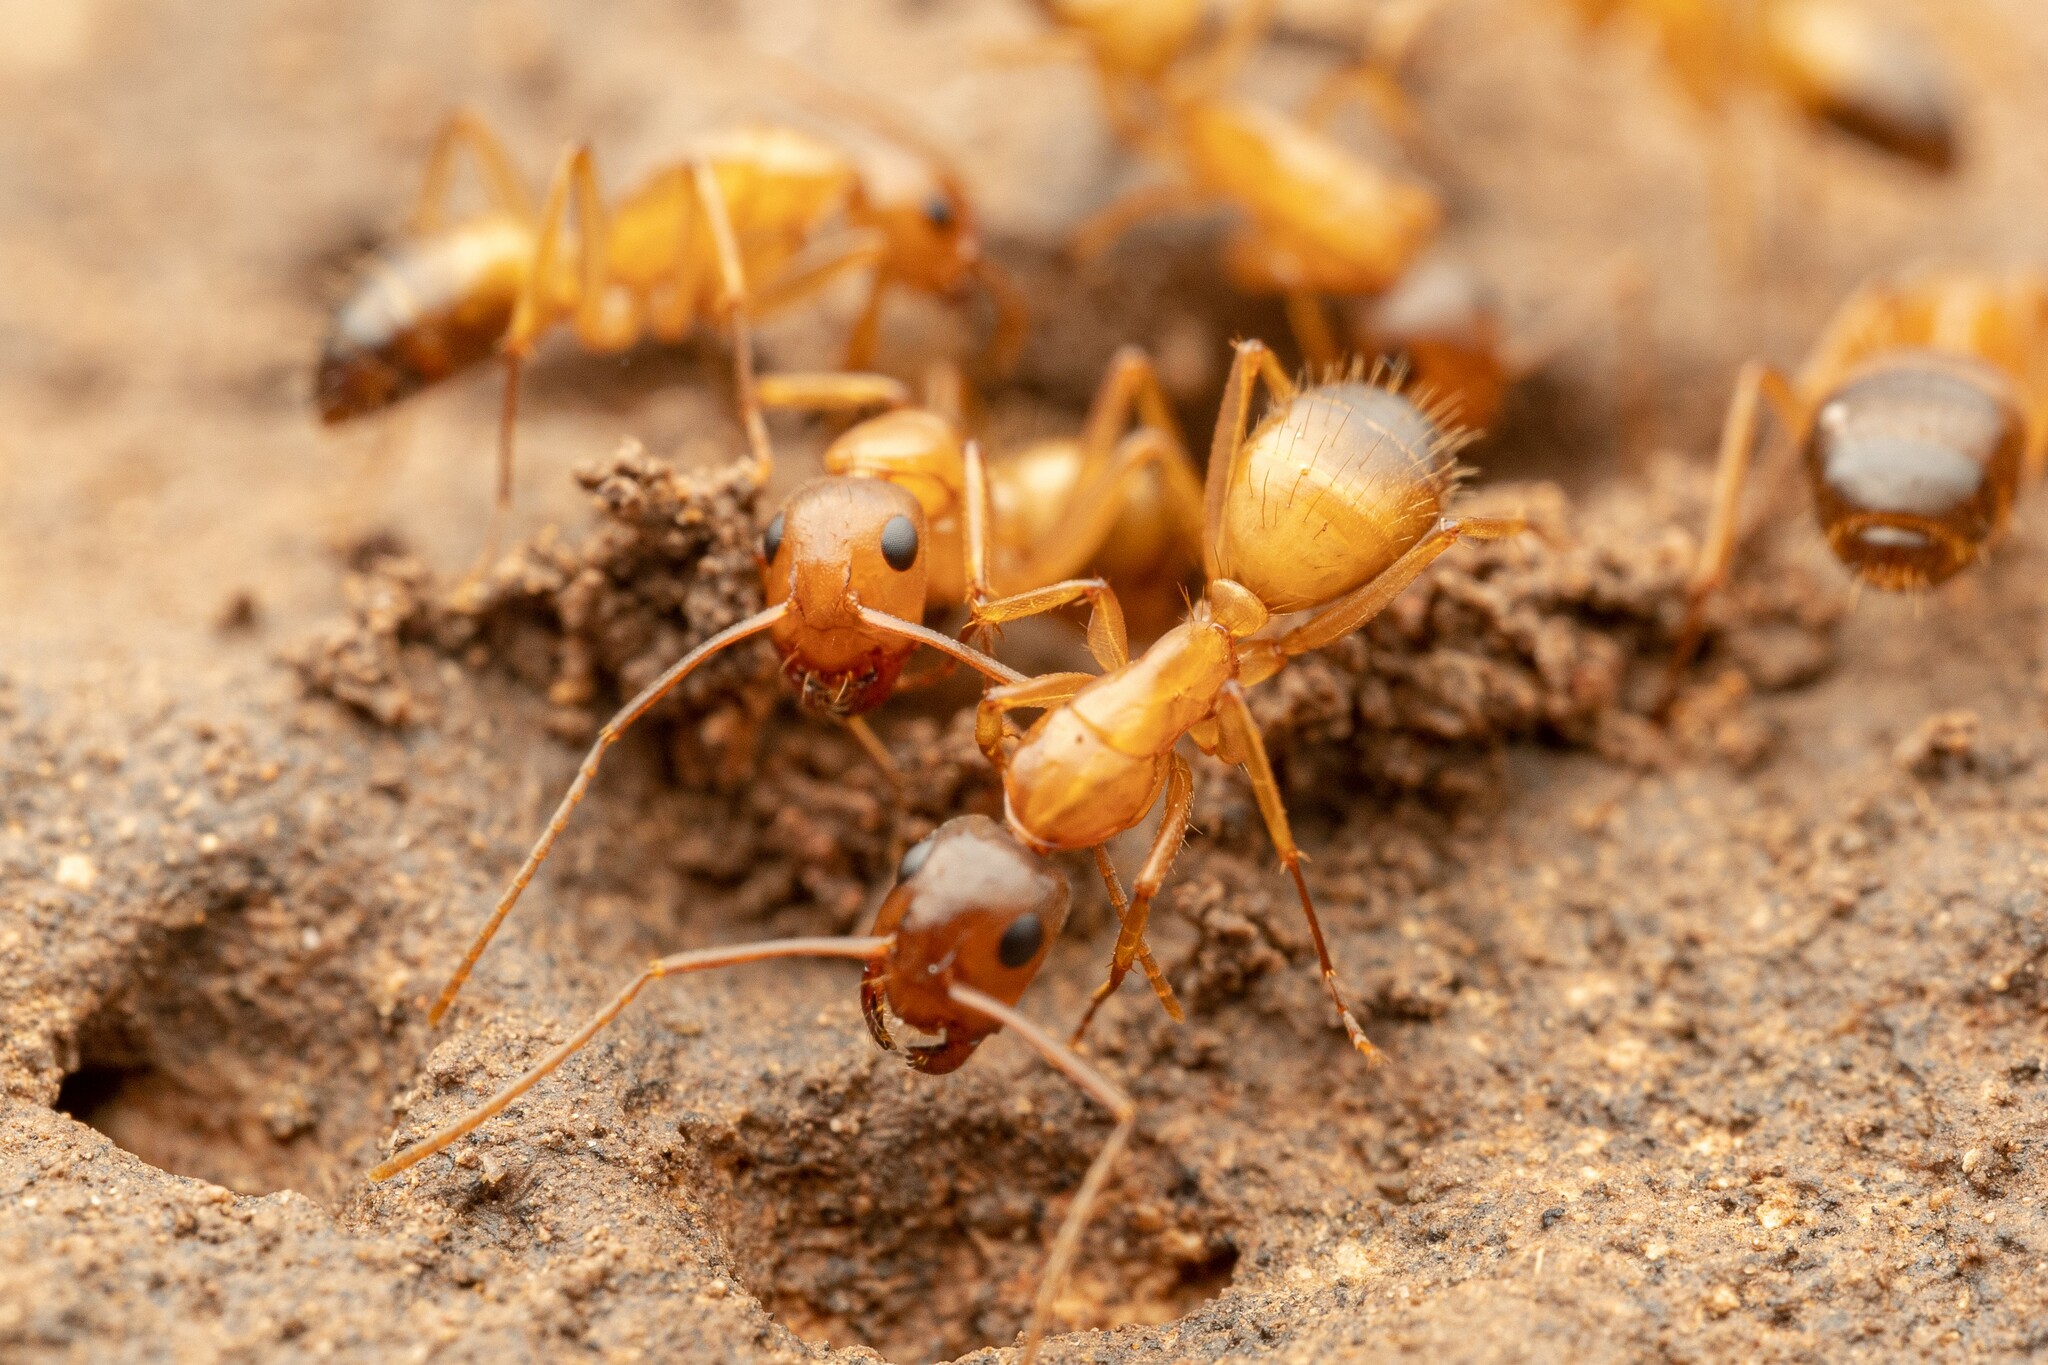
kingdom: Animalia
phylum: Arthropoda
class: Insecta
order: Hymenoptera
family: Formicidae
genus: Camponotus
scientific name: Camponotus sansabeanus
